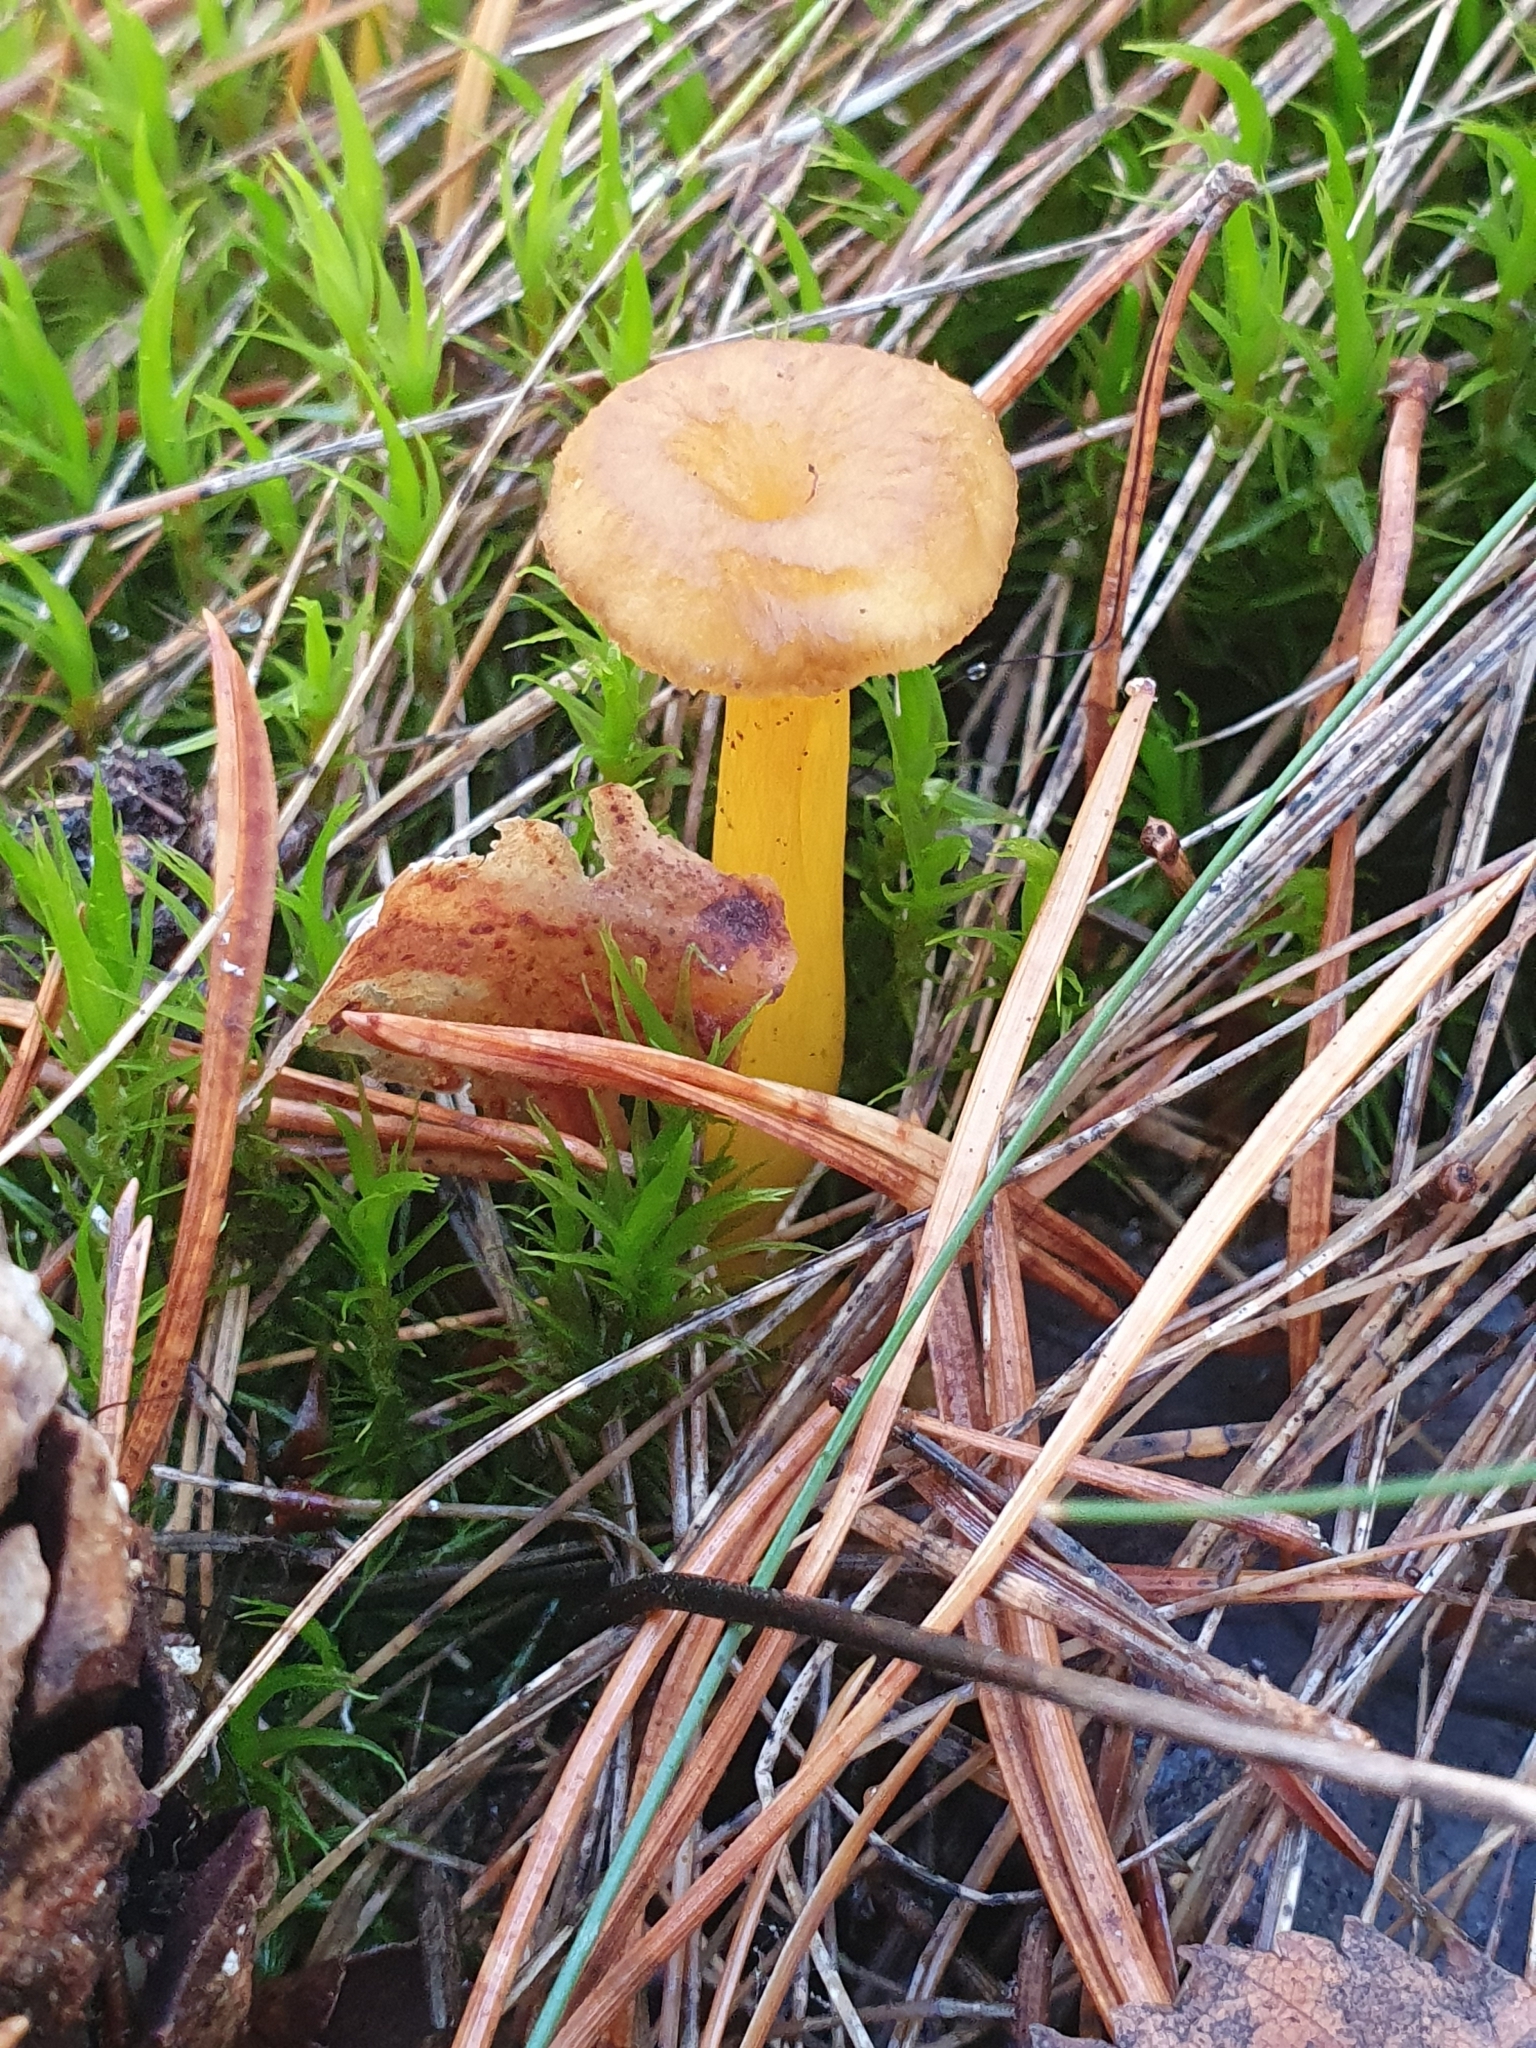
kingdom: Fungi
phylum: Basidiomycota
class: Agaricomycetes
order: Cantharellales
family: Hydnaceae
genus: Craterellus
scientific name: Craterellus tubaeformis
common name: Yellowfoot
